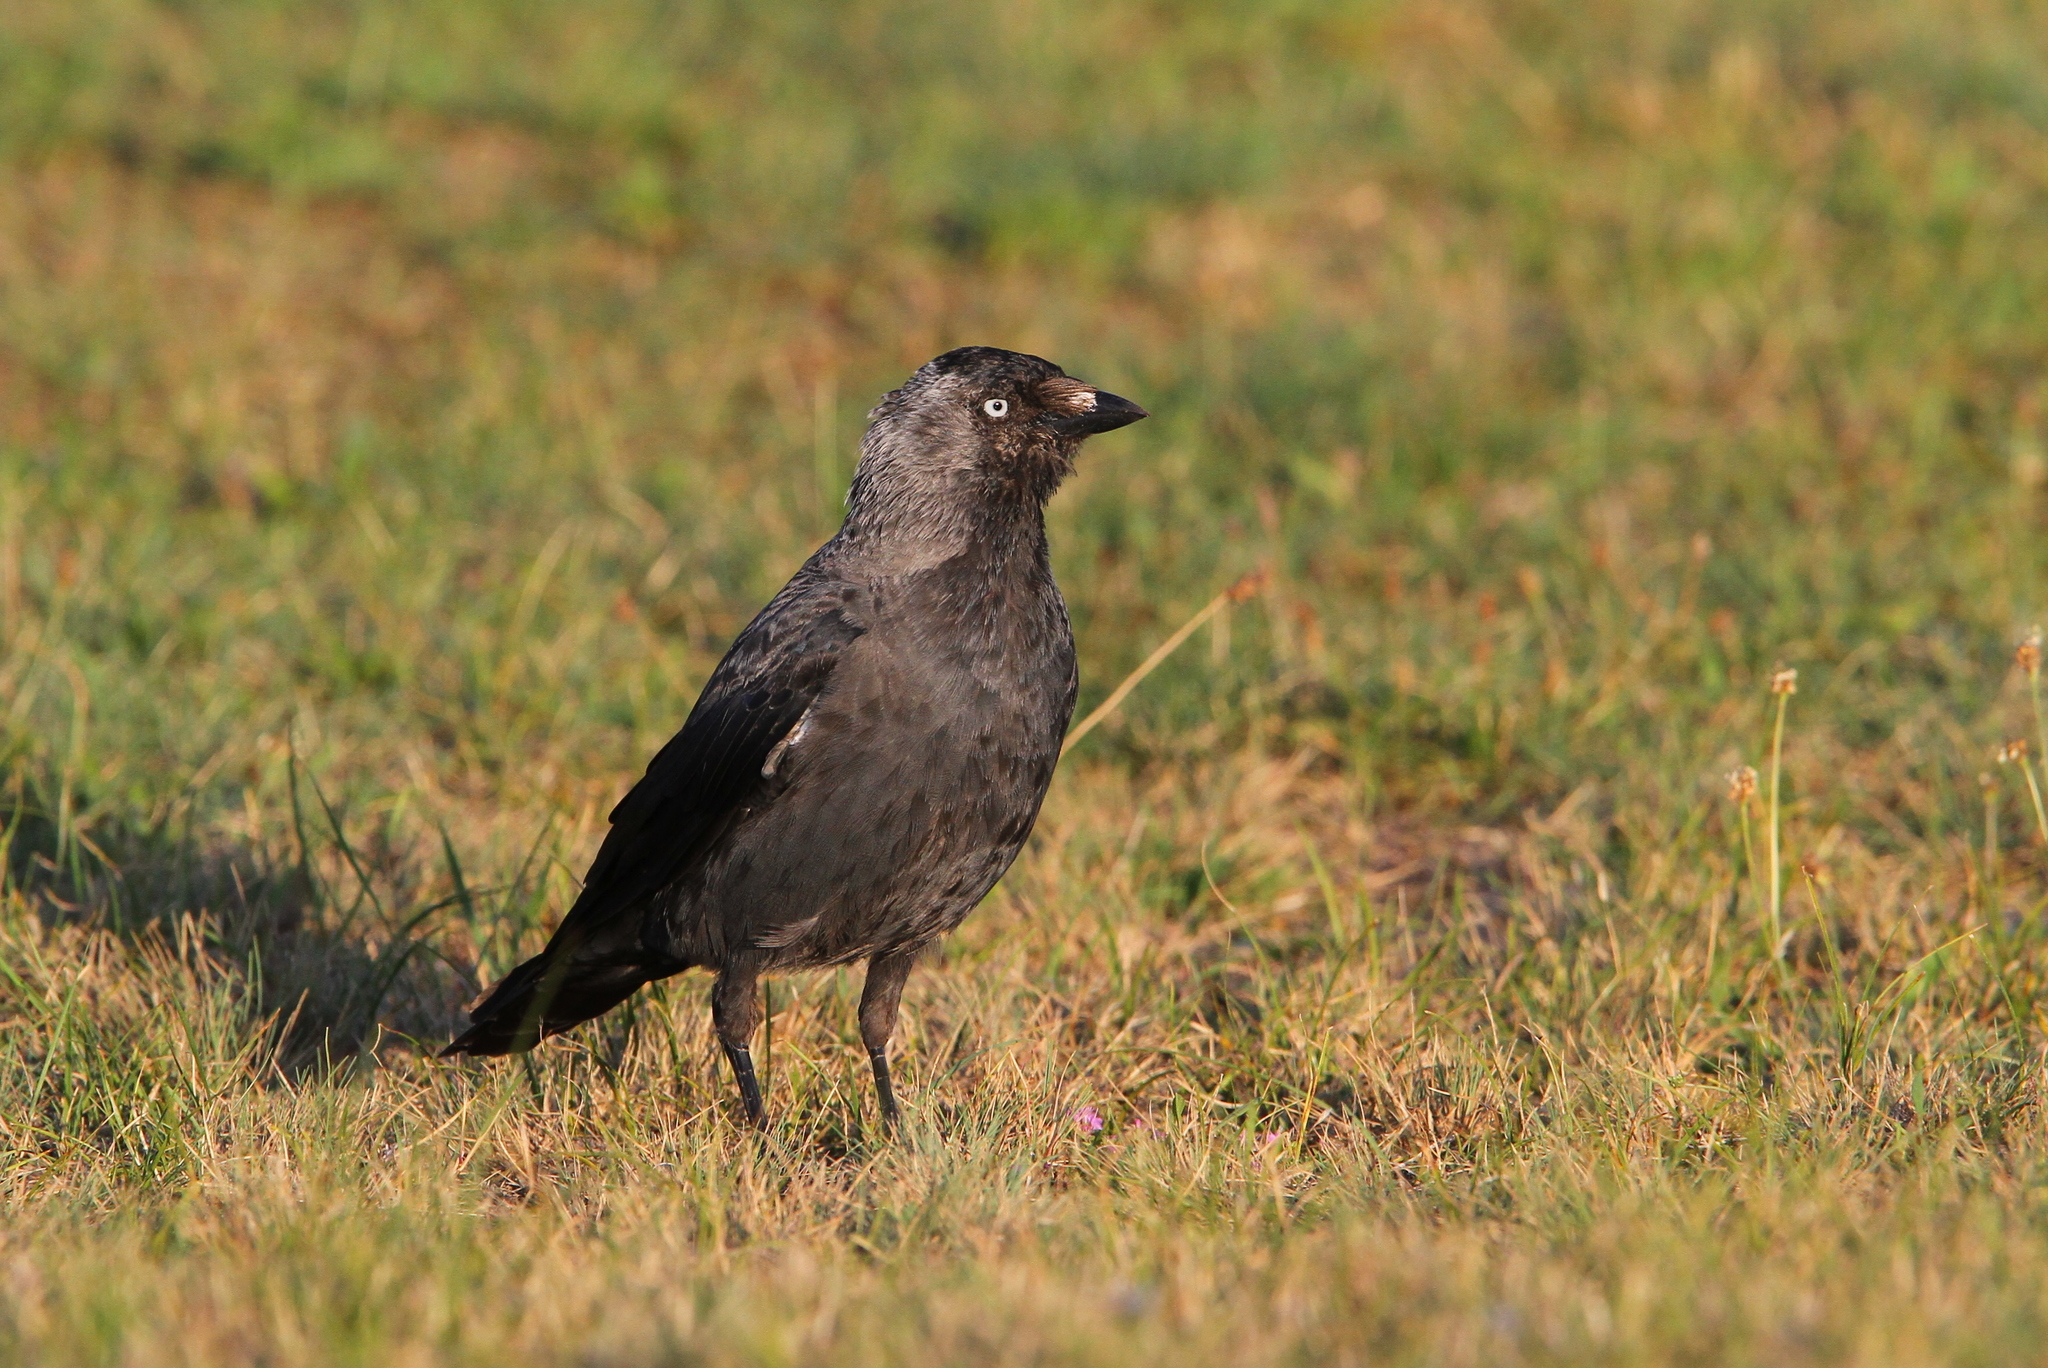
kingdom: Animalia
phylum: Chordata
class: Aves
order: Passeriformes
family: Corvidae
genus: Coloeus
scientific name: Coloeus monedula
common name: Western jackdaw
